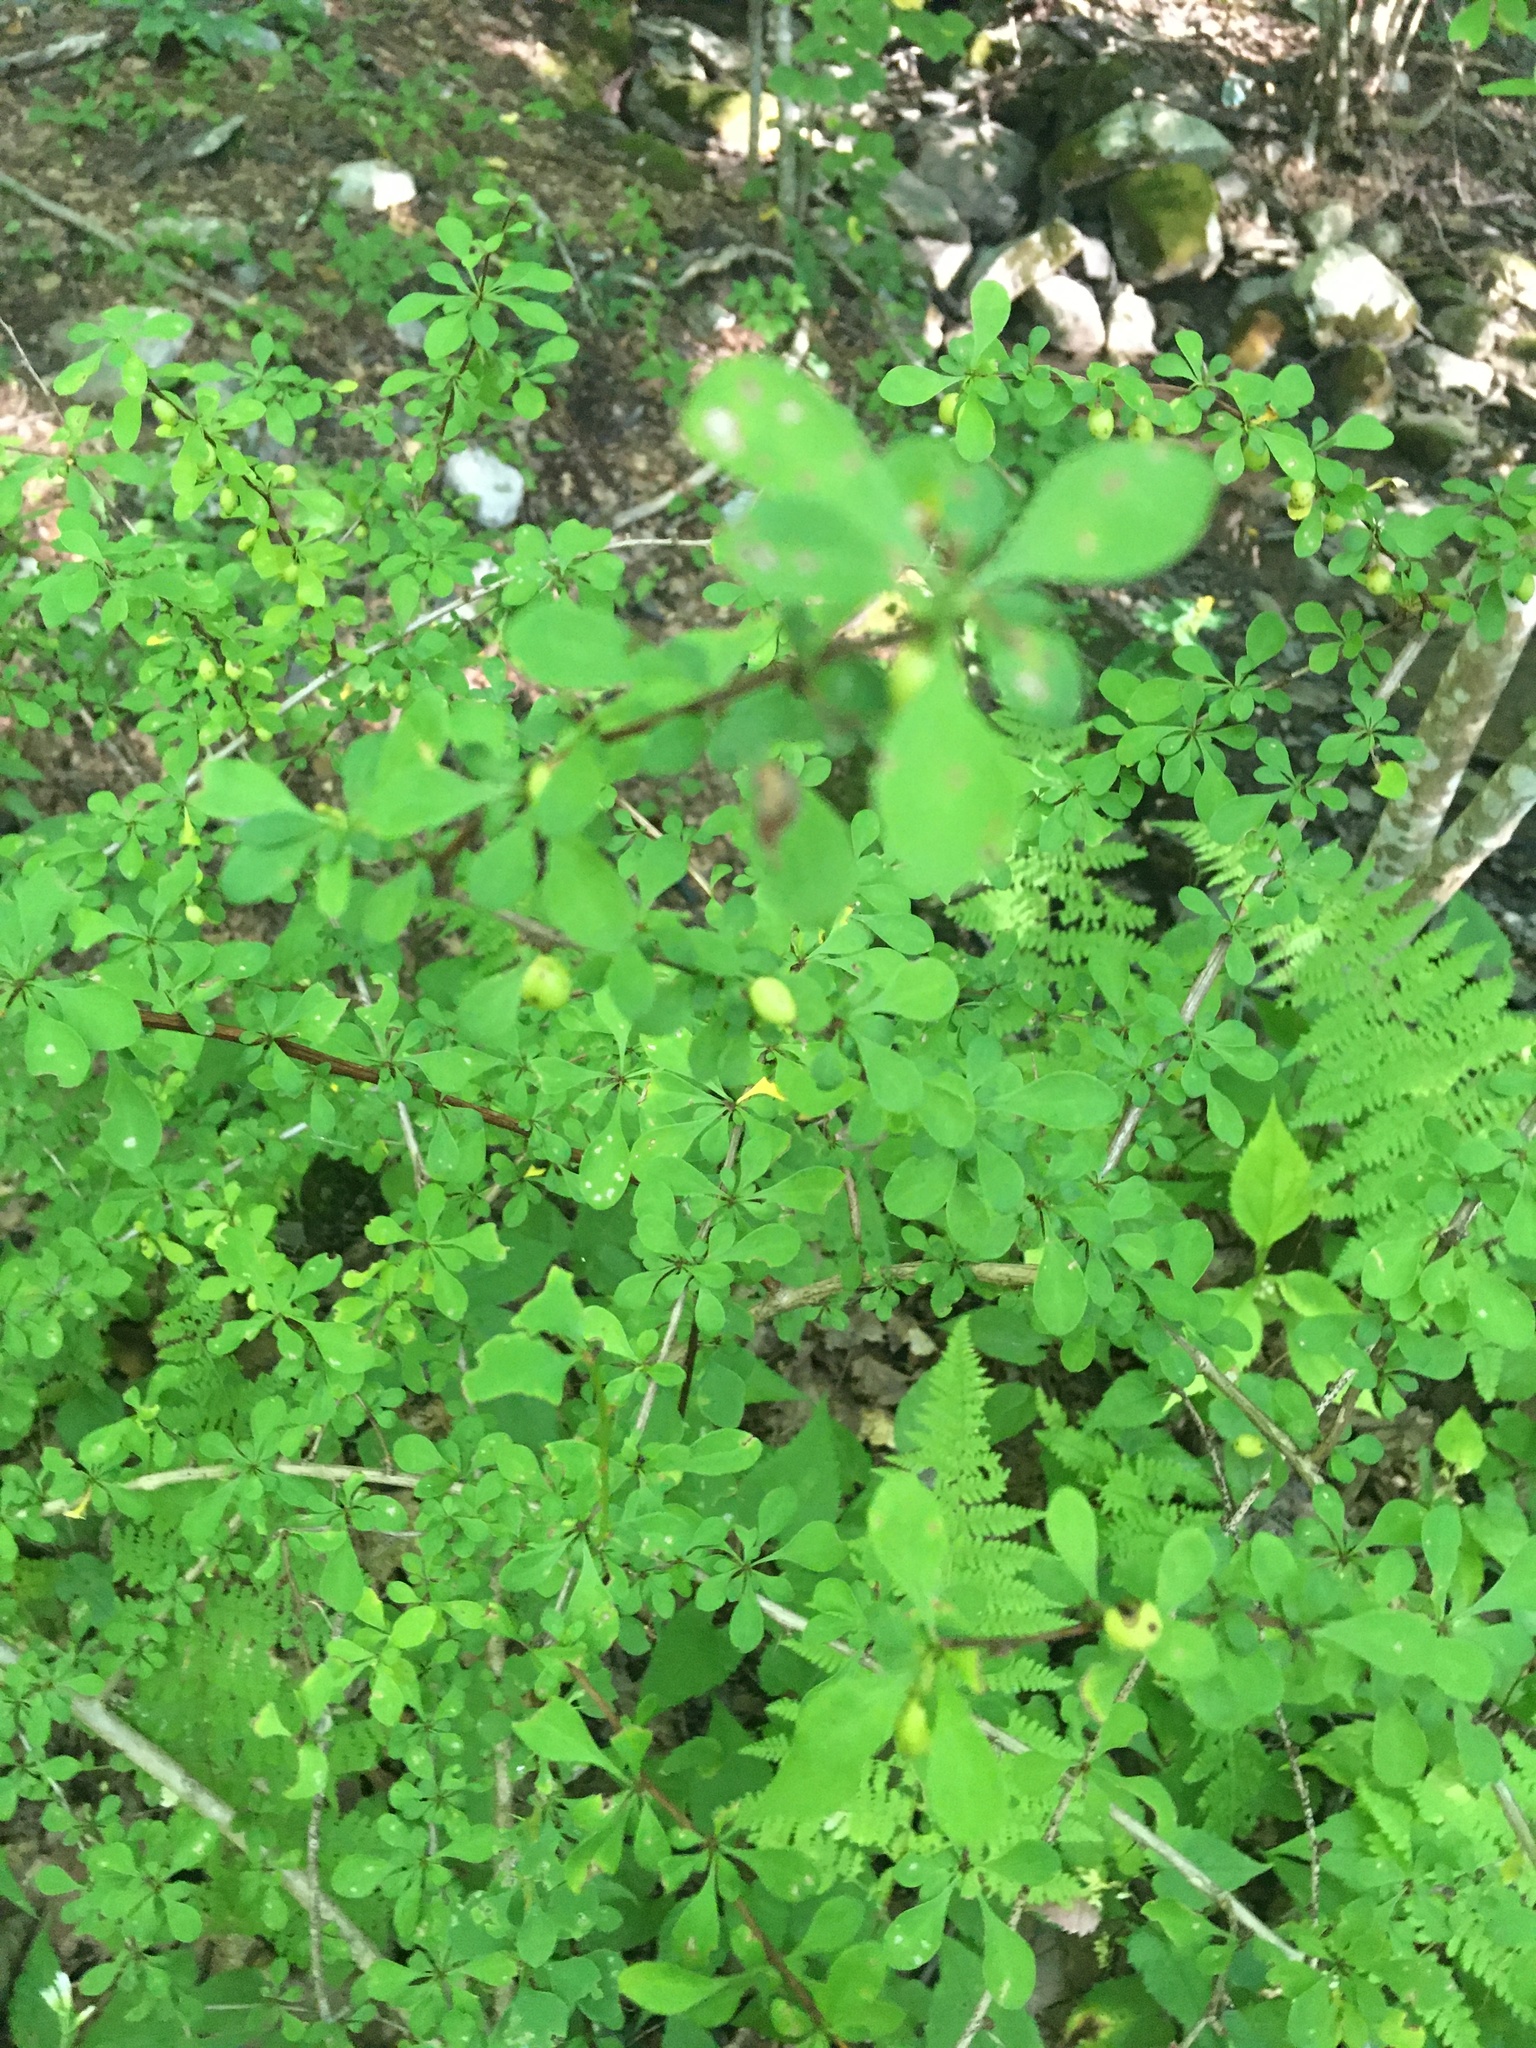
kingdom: Plantae
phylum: Tracheophyta
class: Magnoliopsida
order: Ranunculales
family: Berberidaceae
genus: Berberis
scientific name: Berberis thunbergii
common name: Japanese barberry
